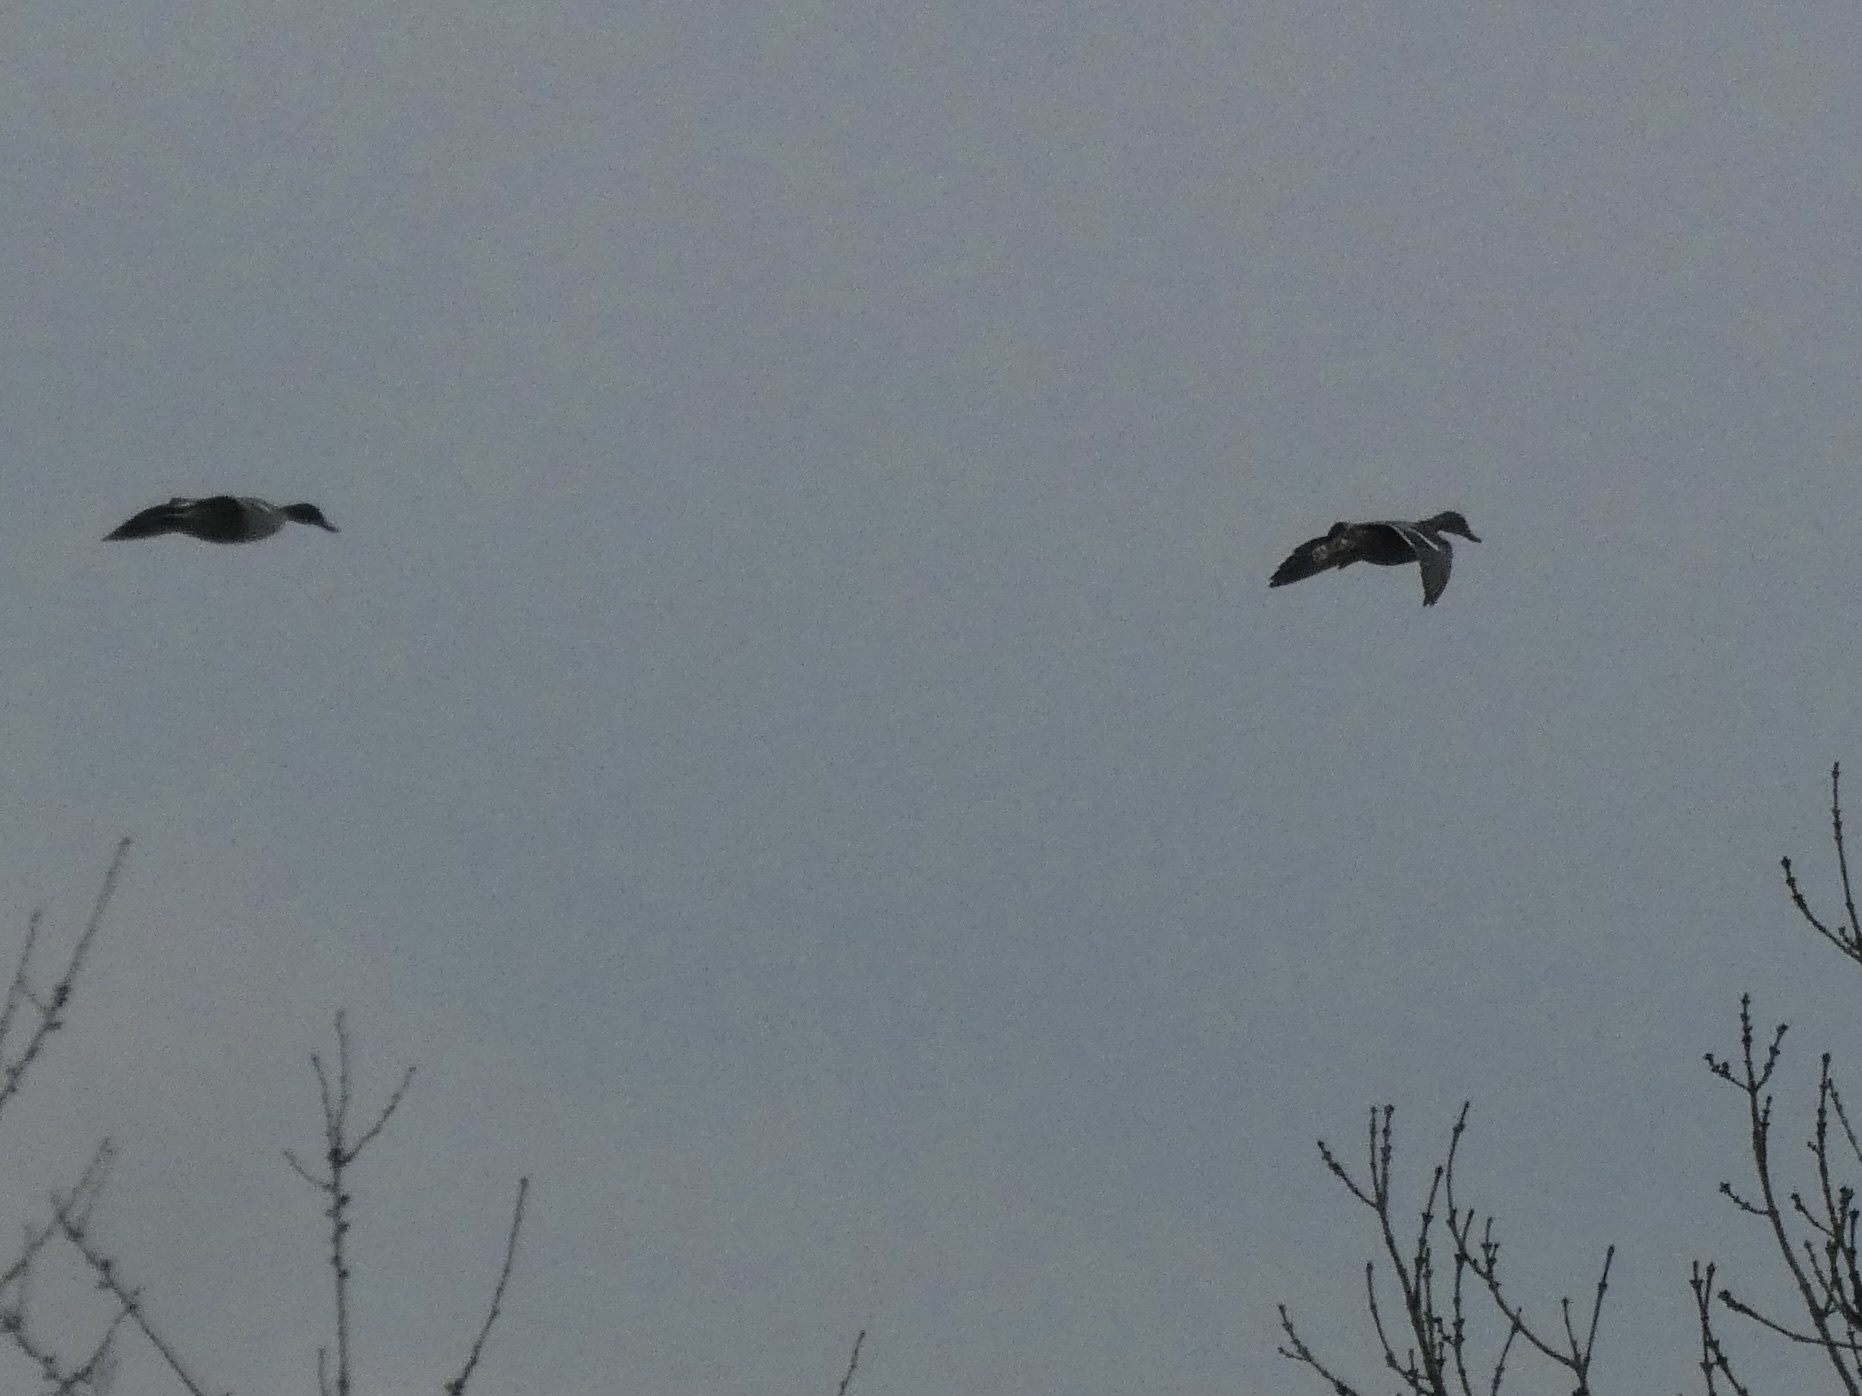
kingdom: Animalia
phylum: Chordata
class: Aves
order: Anseriformes
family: Anatidae
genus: Anas
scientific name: Anas platyrhynchos
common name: Mallard
